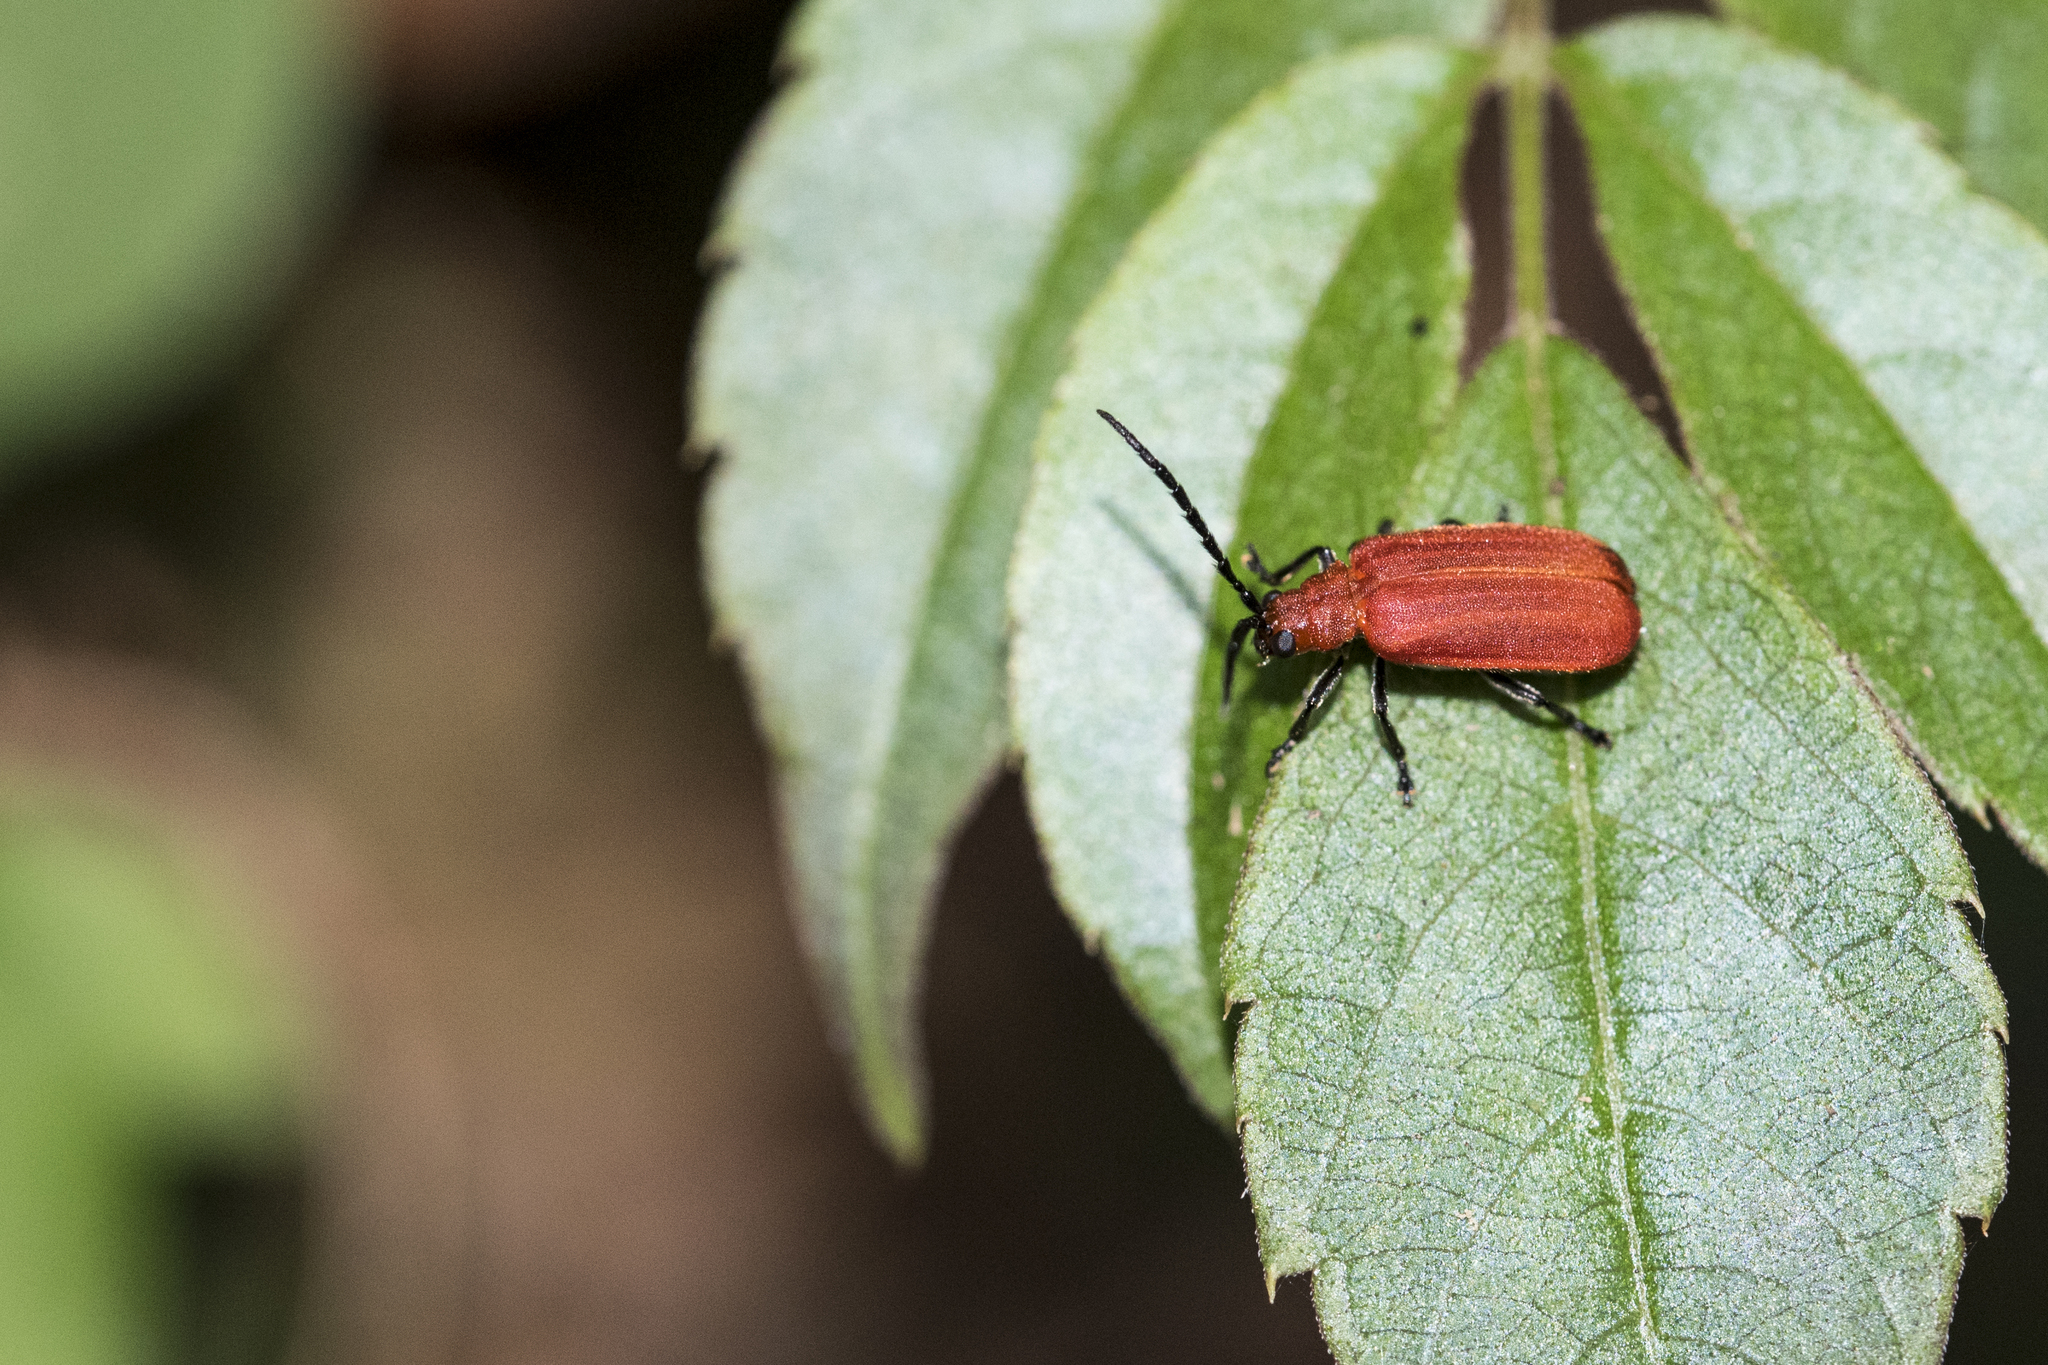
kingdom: Animalia
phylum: Arthropoda
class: Insecta
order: Coleoptera
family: Chrysomelidae
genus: Atysa
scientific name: Atysa brevithorax
